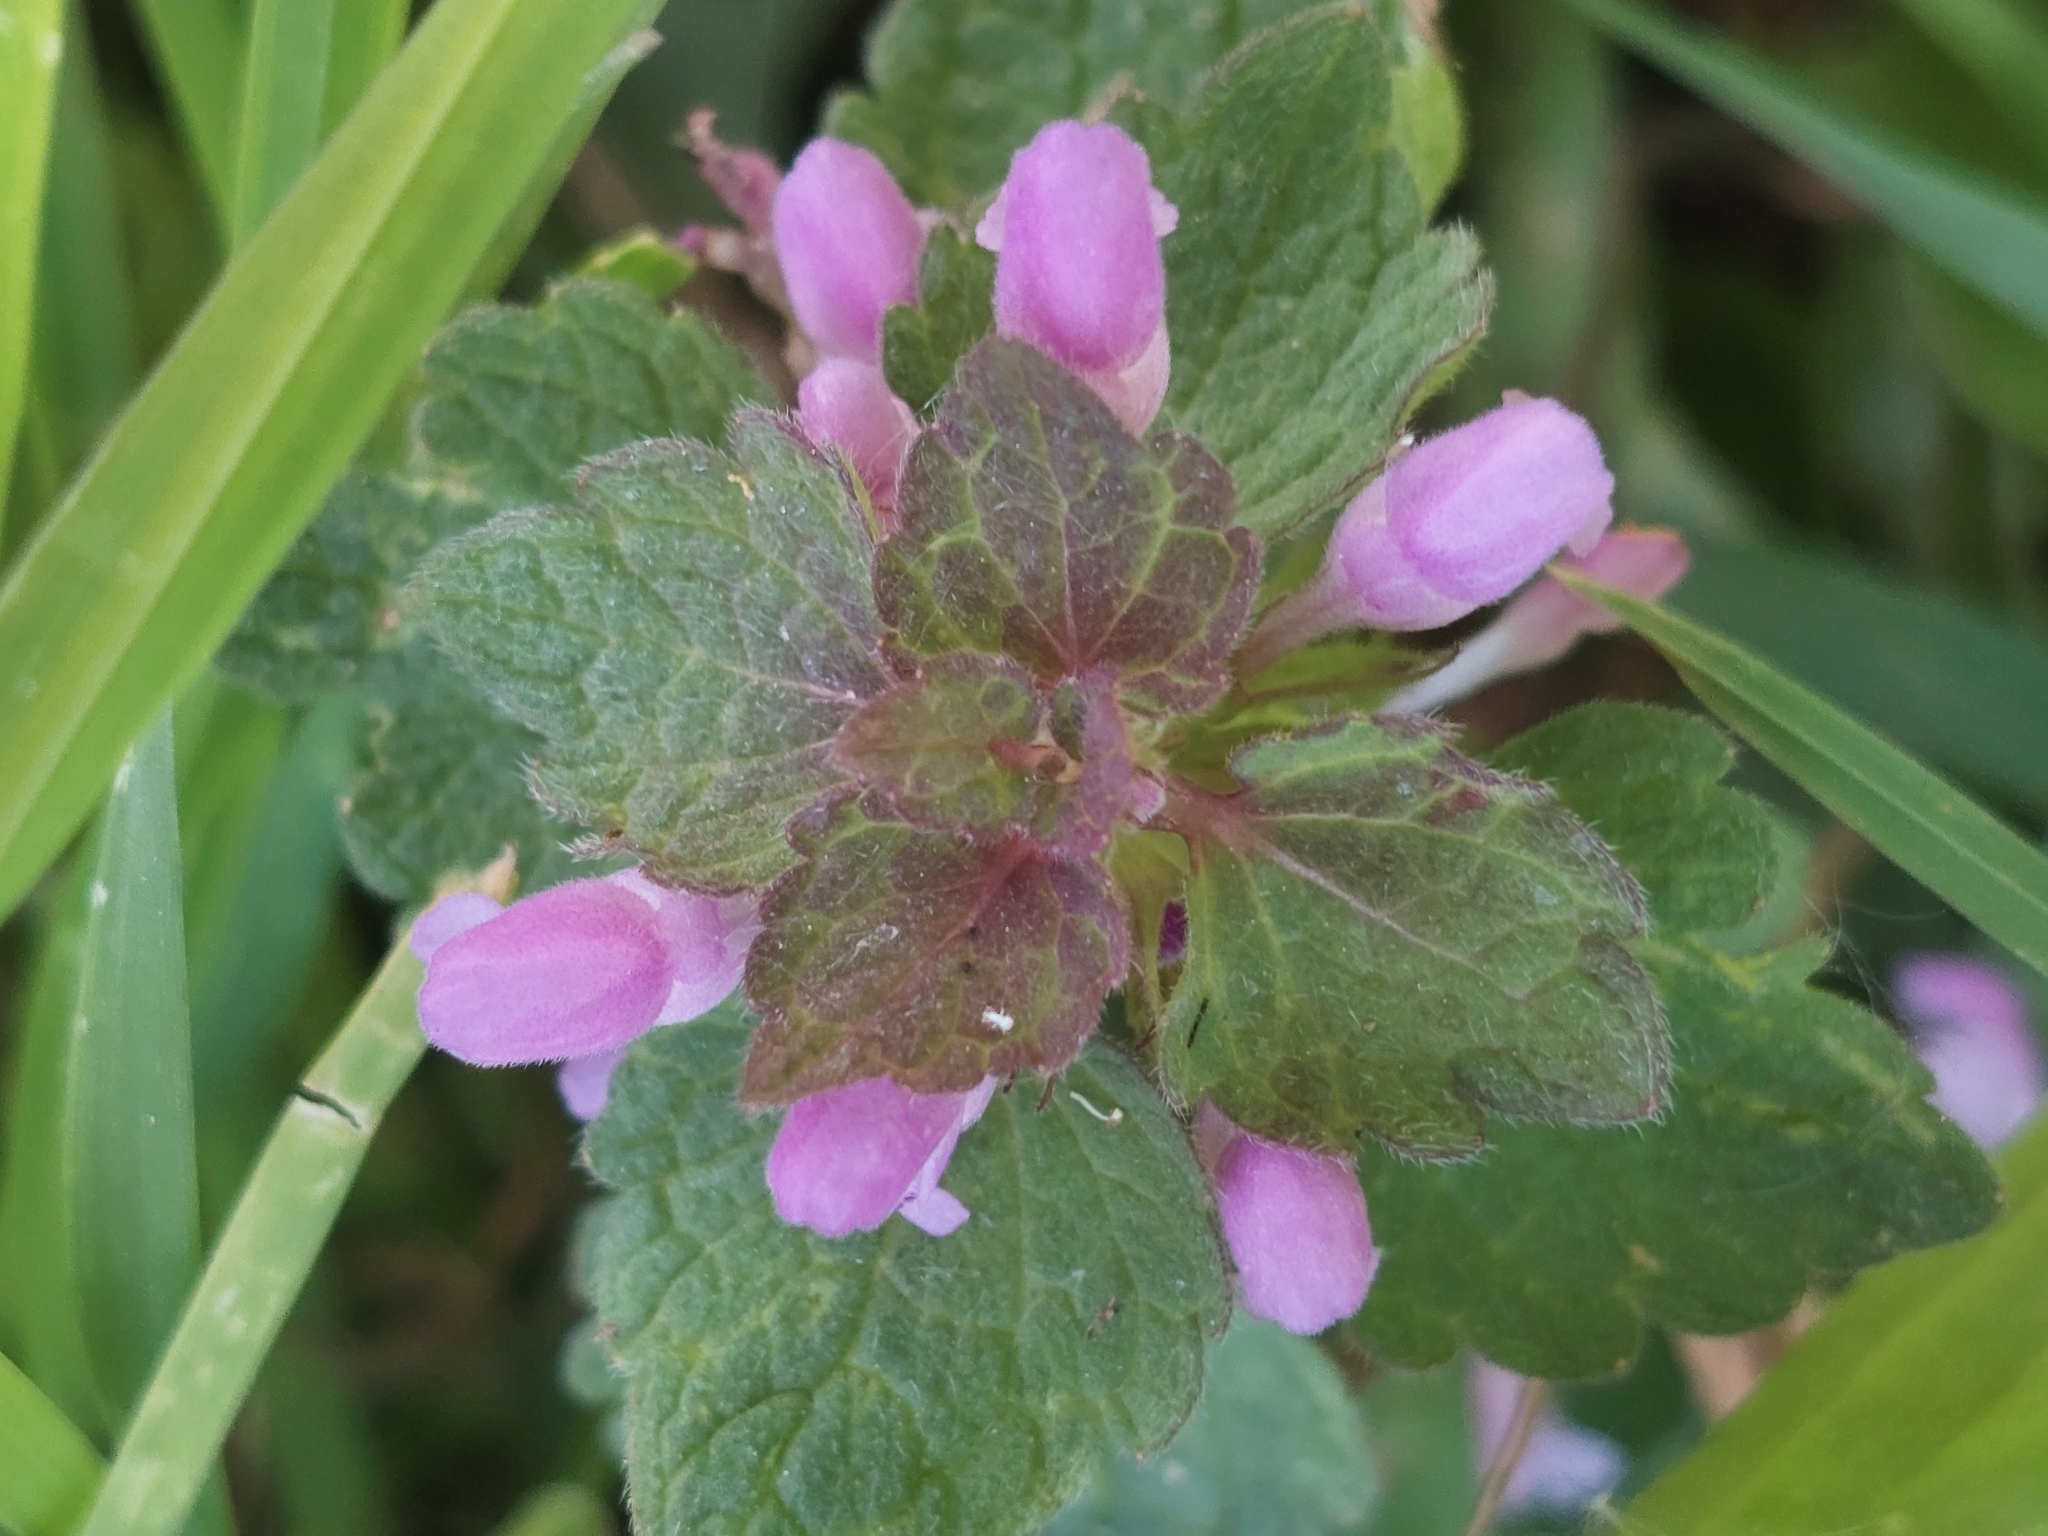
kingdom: Plantae
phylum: Tracheophyta
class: Magnoliopsida
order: Lamiales
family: Lamiaceae
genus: Lamium
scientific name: Lamium purpureum
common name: Red dead-nettle
